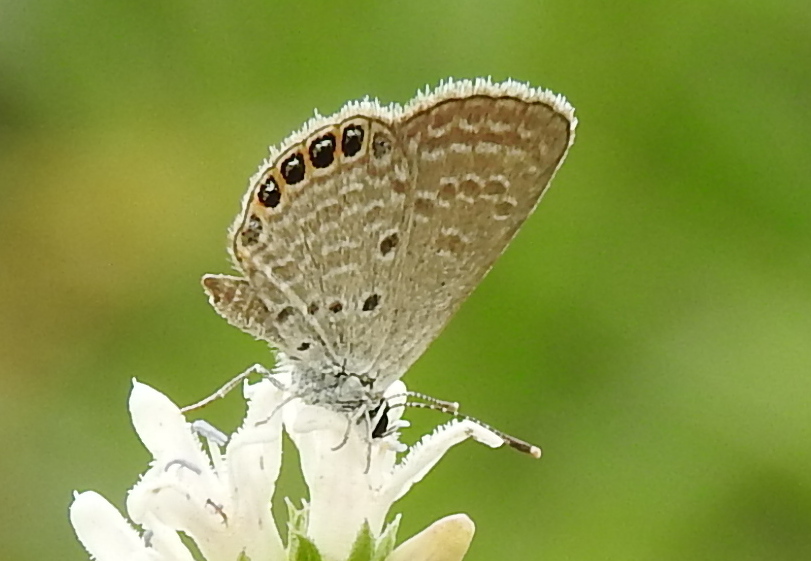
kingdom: Animalia
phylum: Arthropoda
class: Insecta
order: Lepidoptera
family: Lycaenidae
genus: Freyeria
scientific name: Freyeria putli
